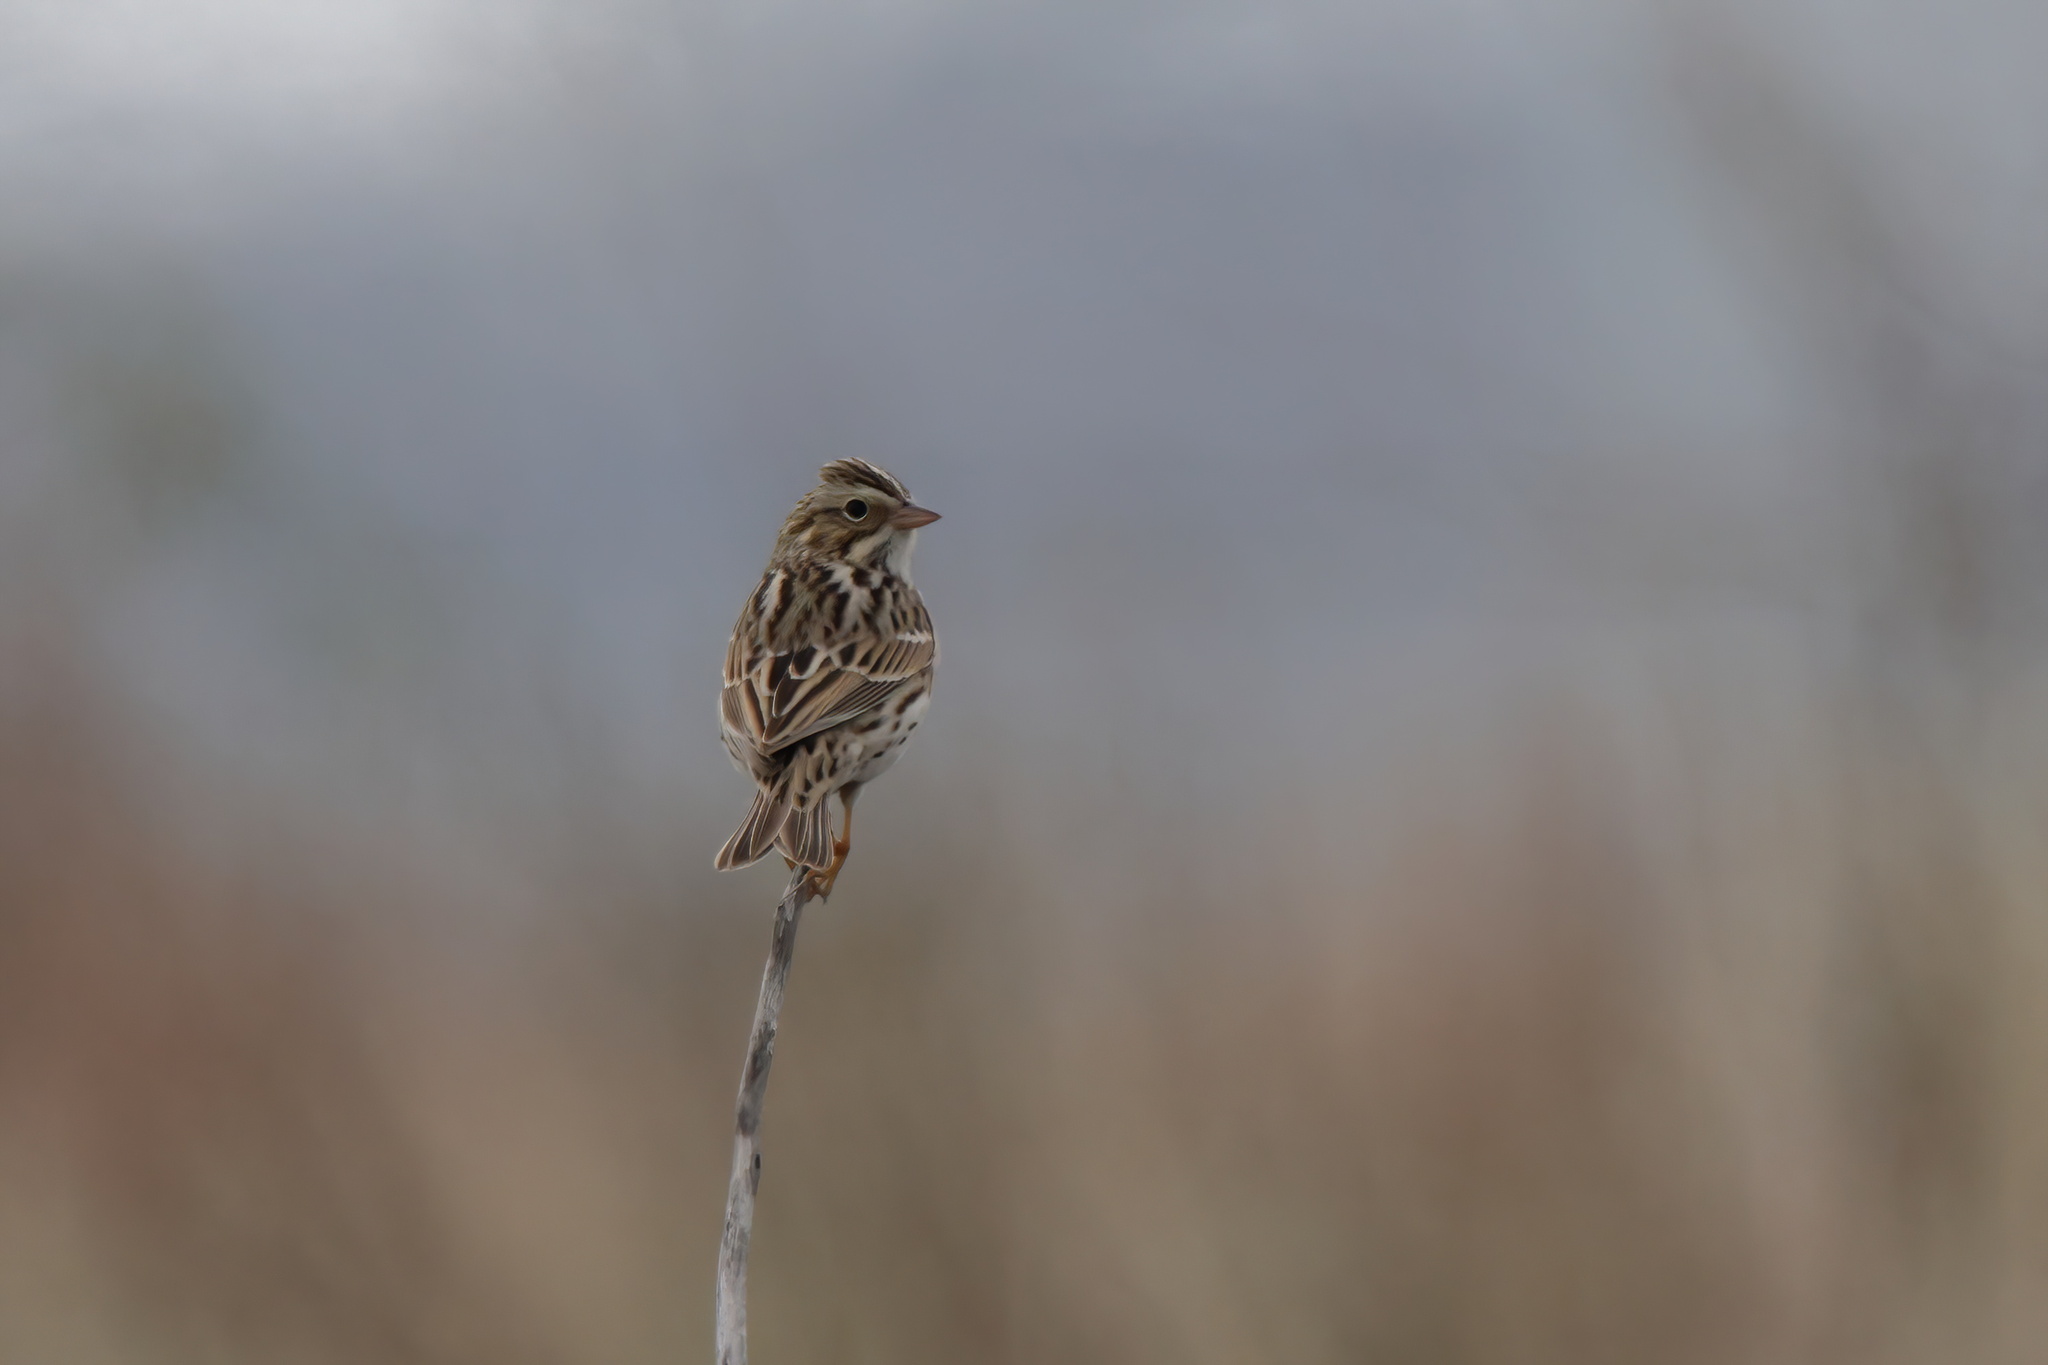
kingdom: Animalia
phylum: Chordata
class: Aves
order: Passeriformes
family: Passerellidae
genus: Passerculus
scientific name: Passerculus sandwichensis
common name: Savannah sparrow
